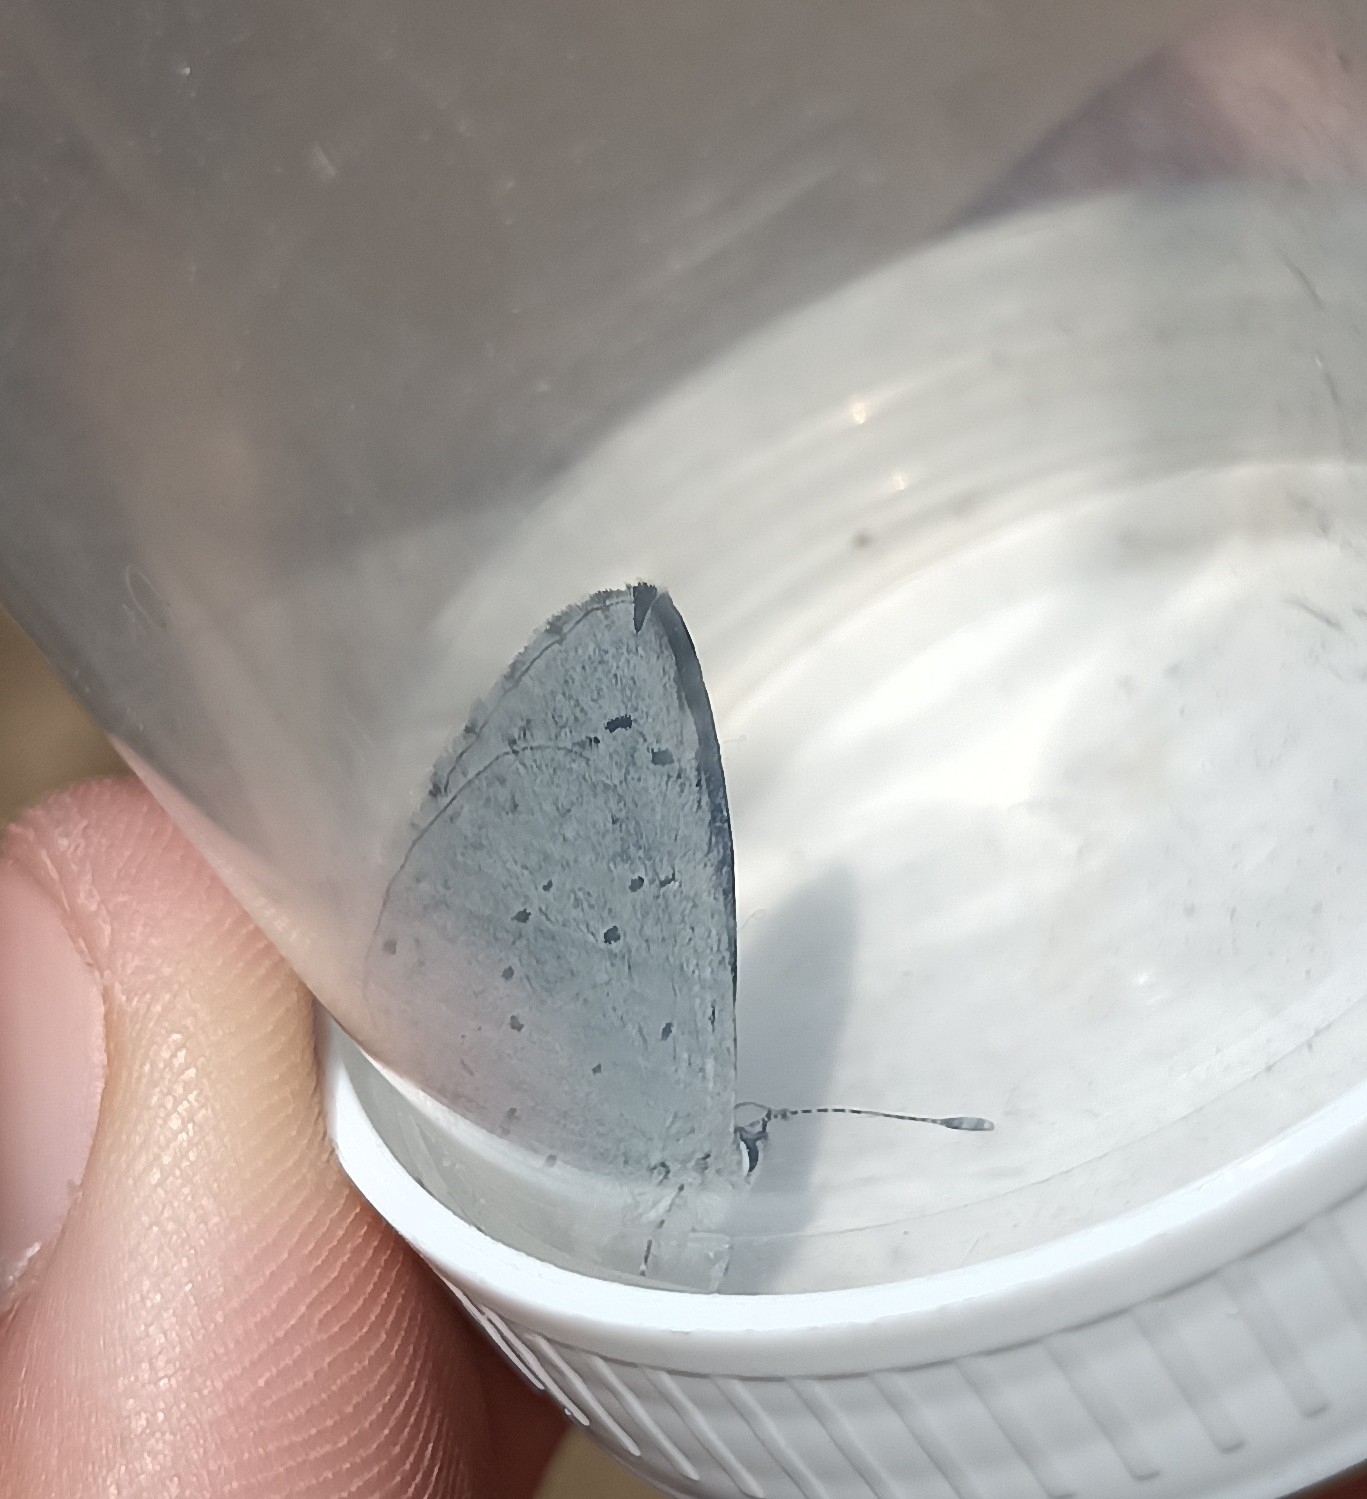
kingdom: Animalia
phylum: Arthropoda
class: Insecta
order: Lepidoptera
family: Lycaenidae
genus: Celastrina
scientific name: Celastrina argiolus
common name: Holly blue
